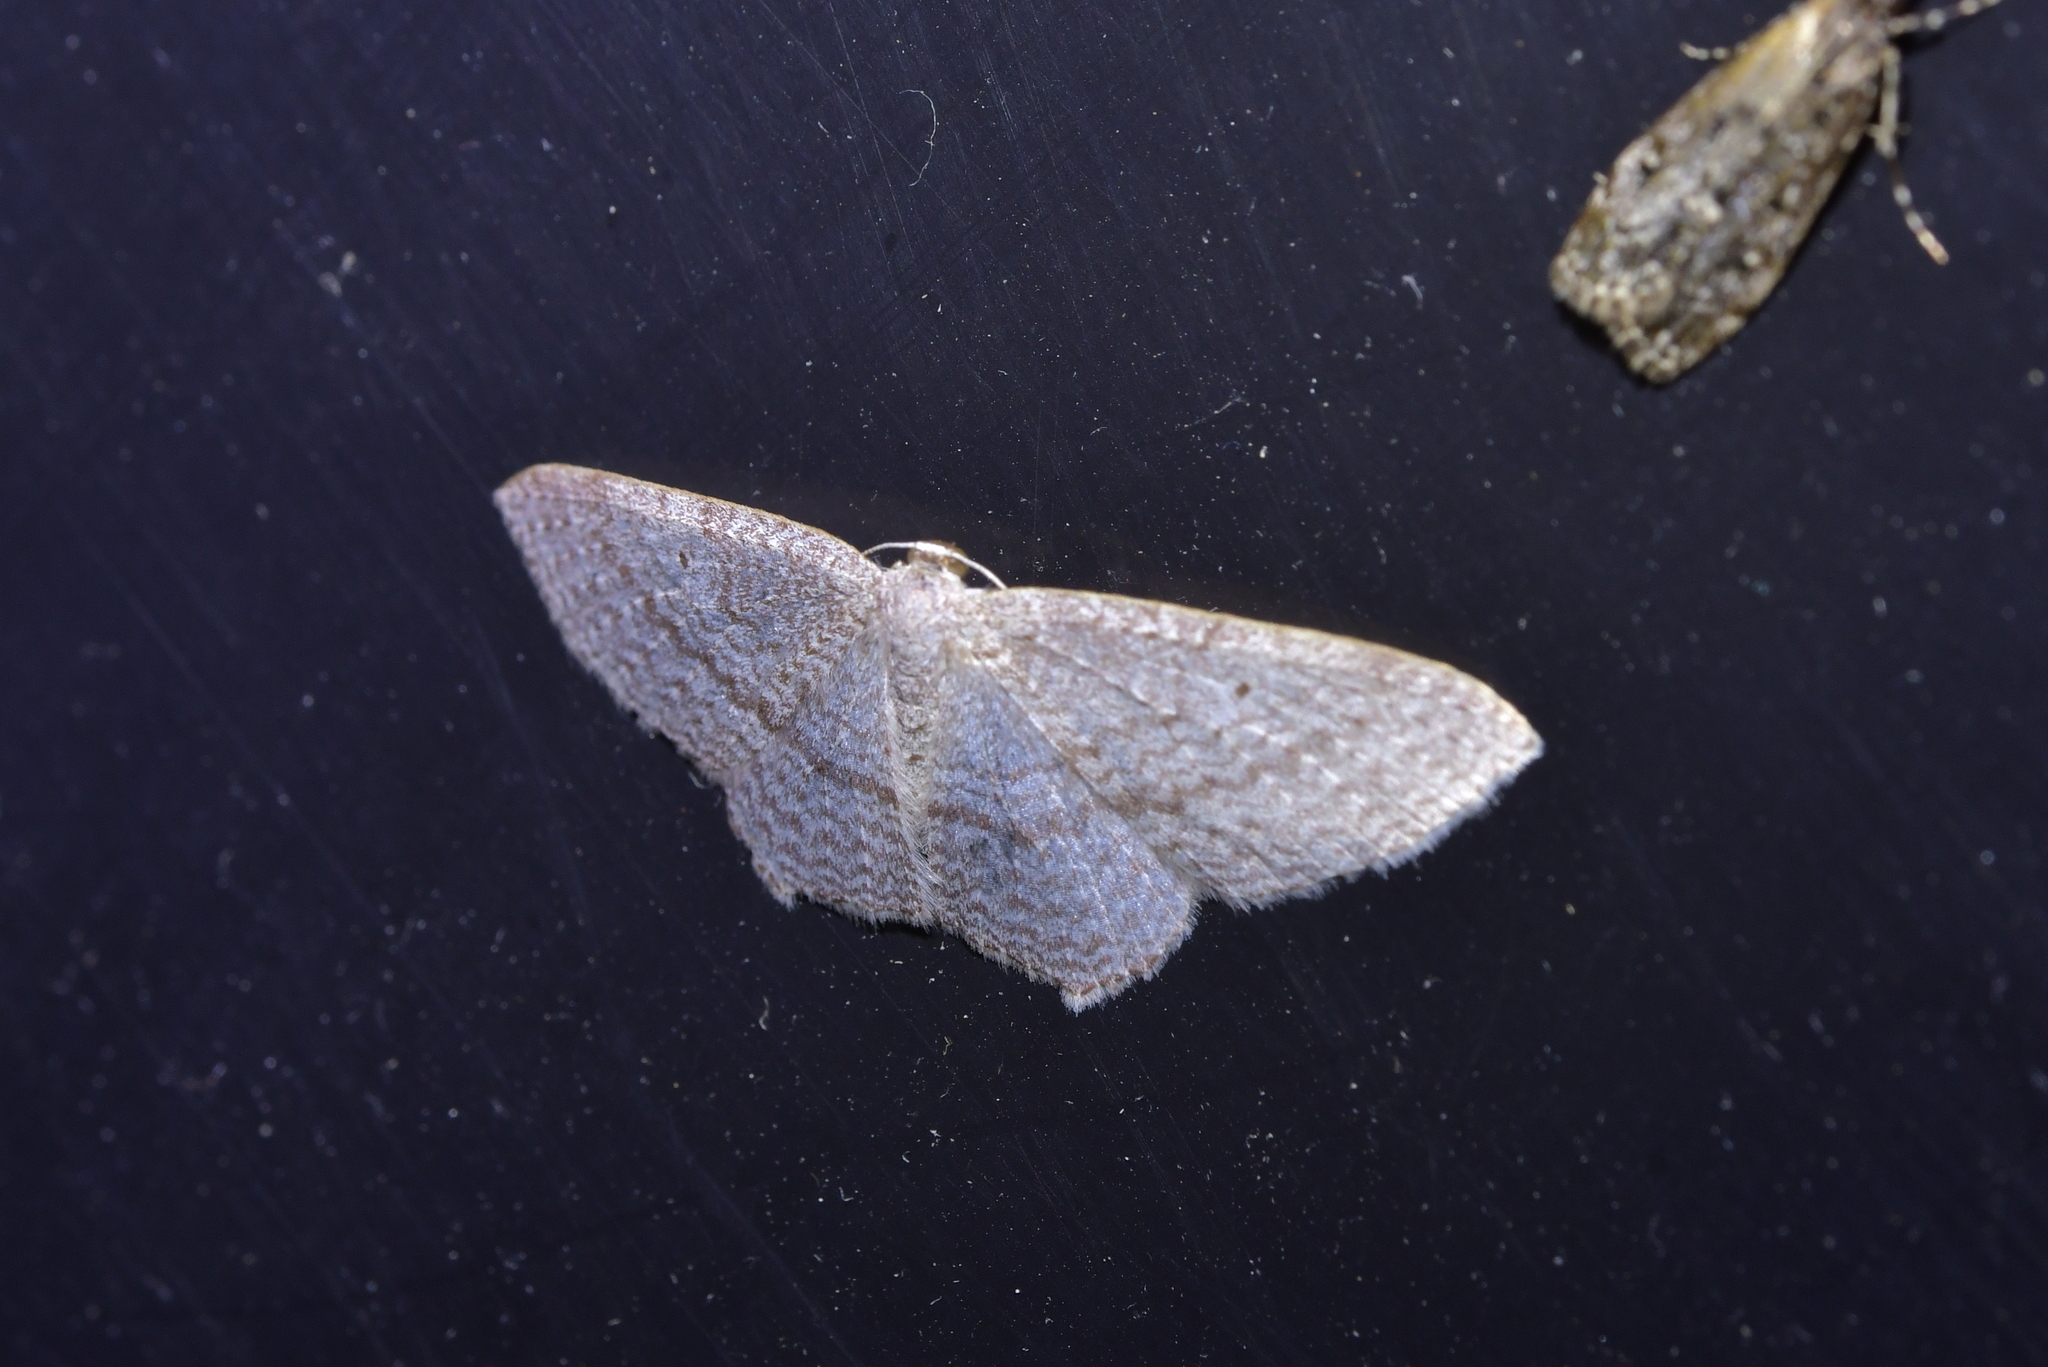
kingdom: Animalia
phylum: Arthropoda
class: Insecta
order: Lepidoptera
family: Geometridae
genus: Poecilasthena
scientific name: Poecilasthena subpurpureata
